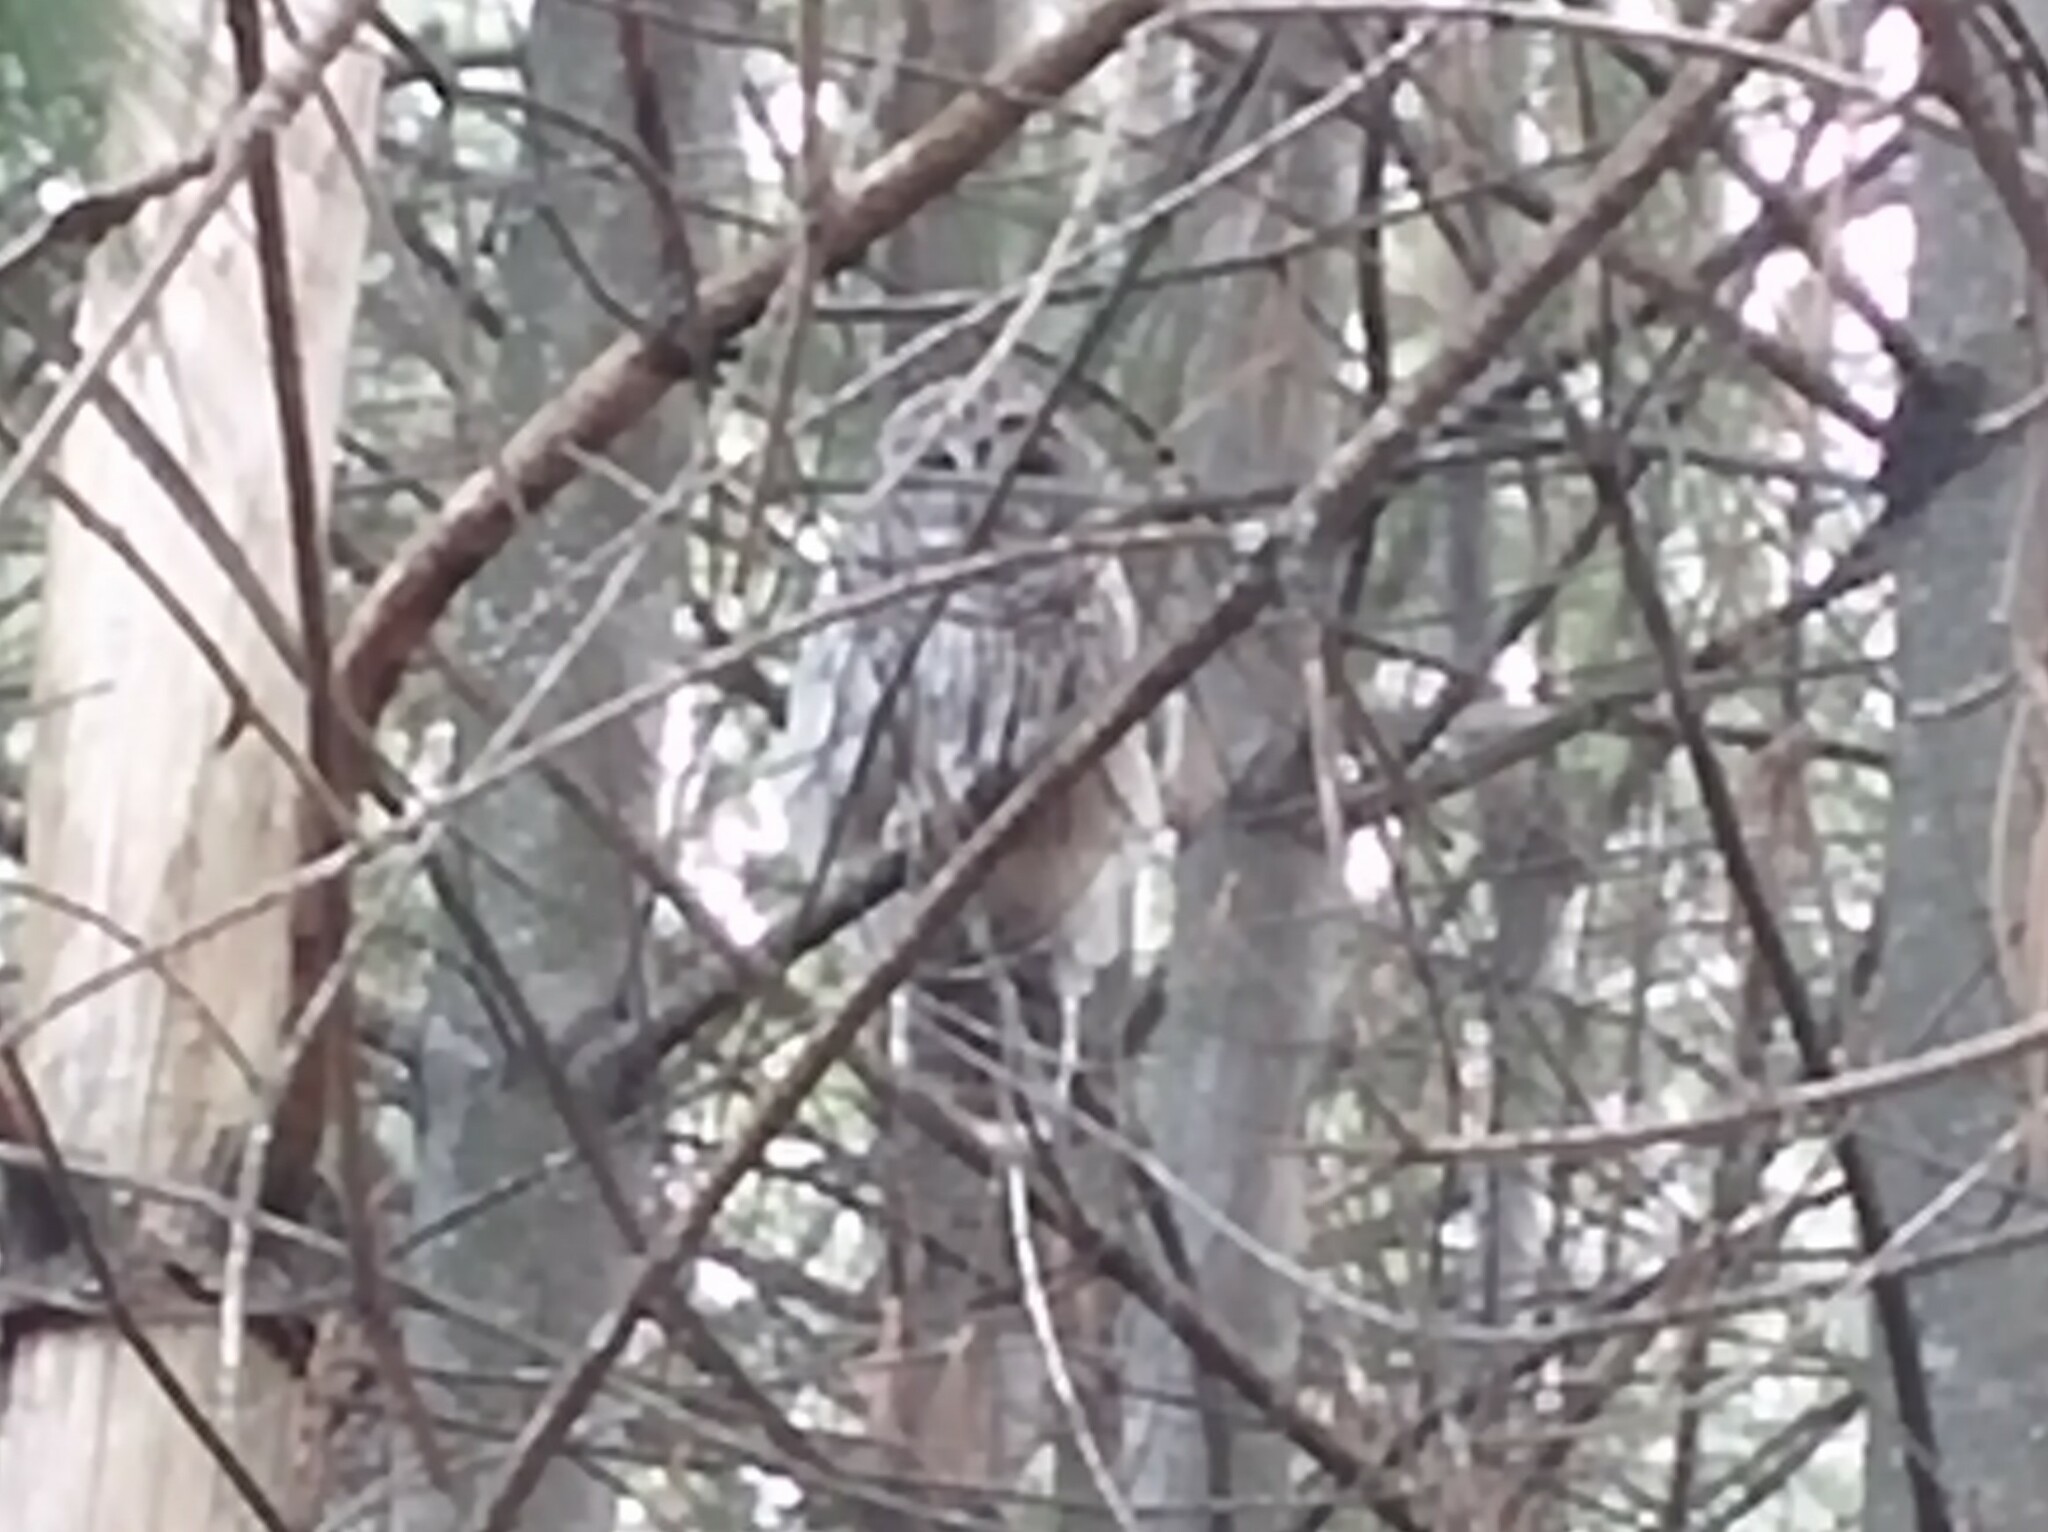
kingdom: Animalia
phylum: Chordata
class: Aves
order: Strigiformes
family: Strigidae
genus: Strix
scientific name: Strix varia
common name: Barred owl
